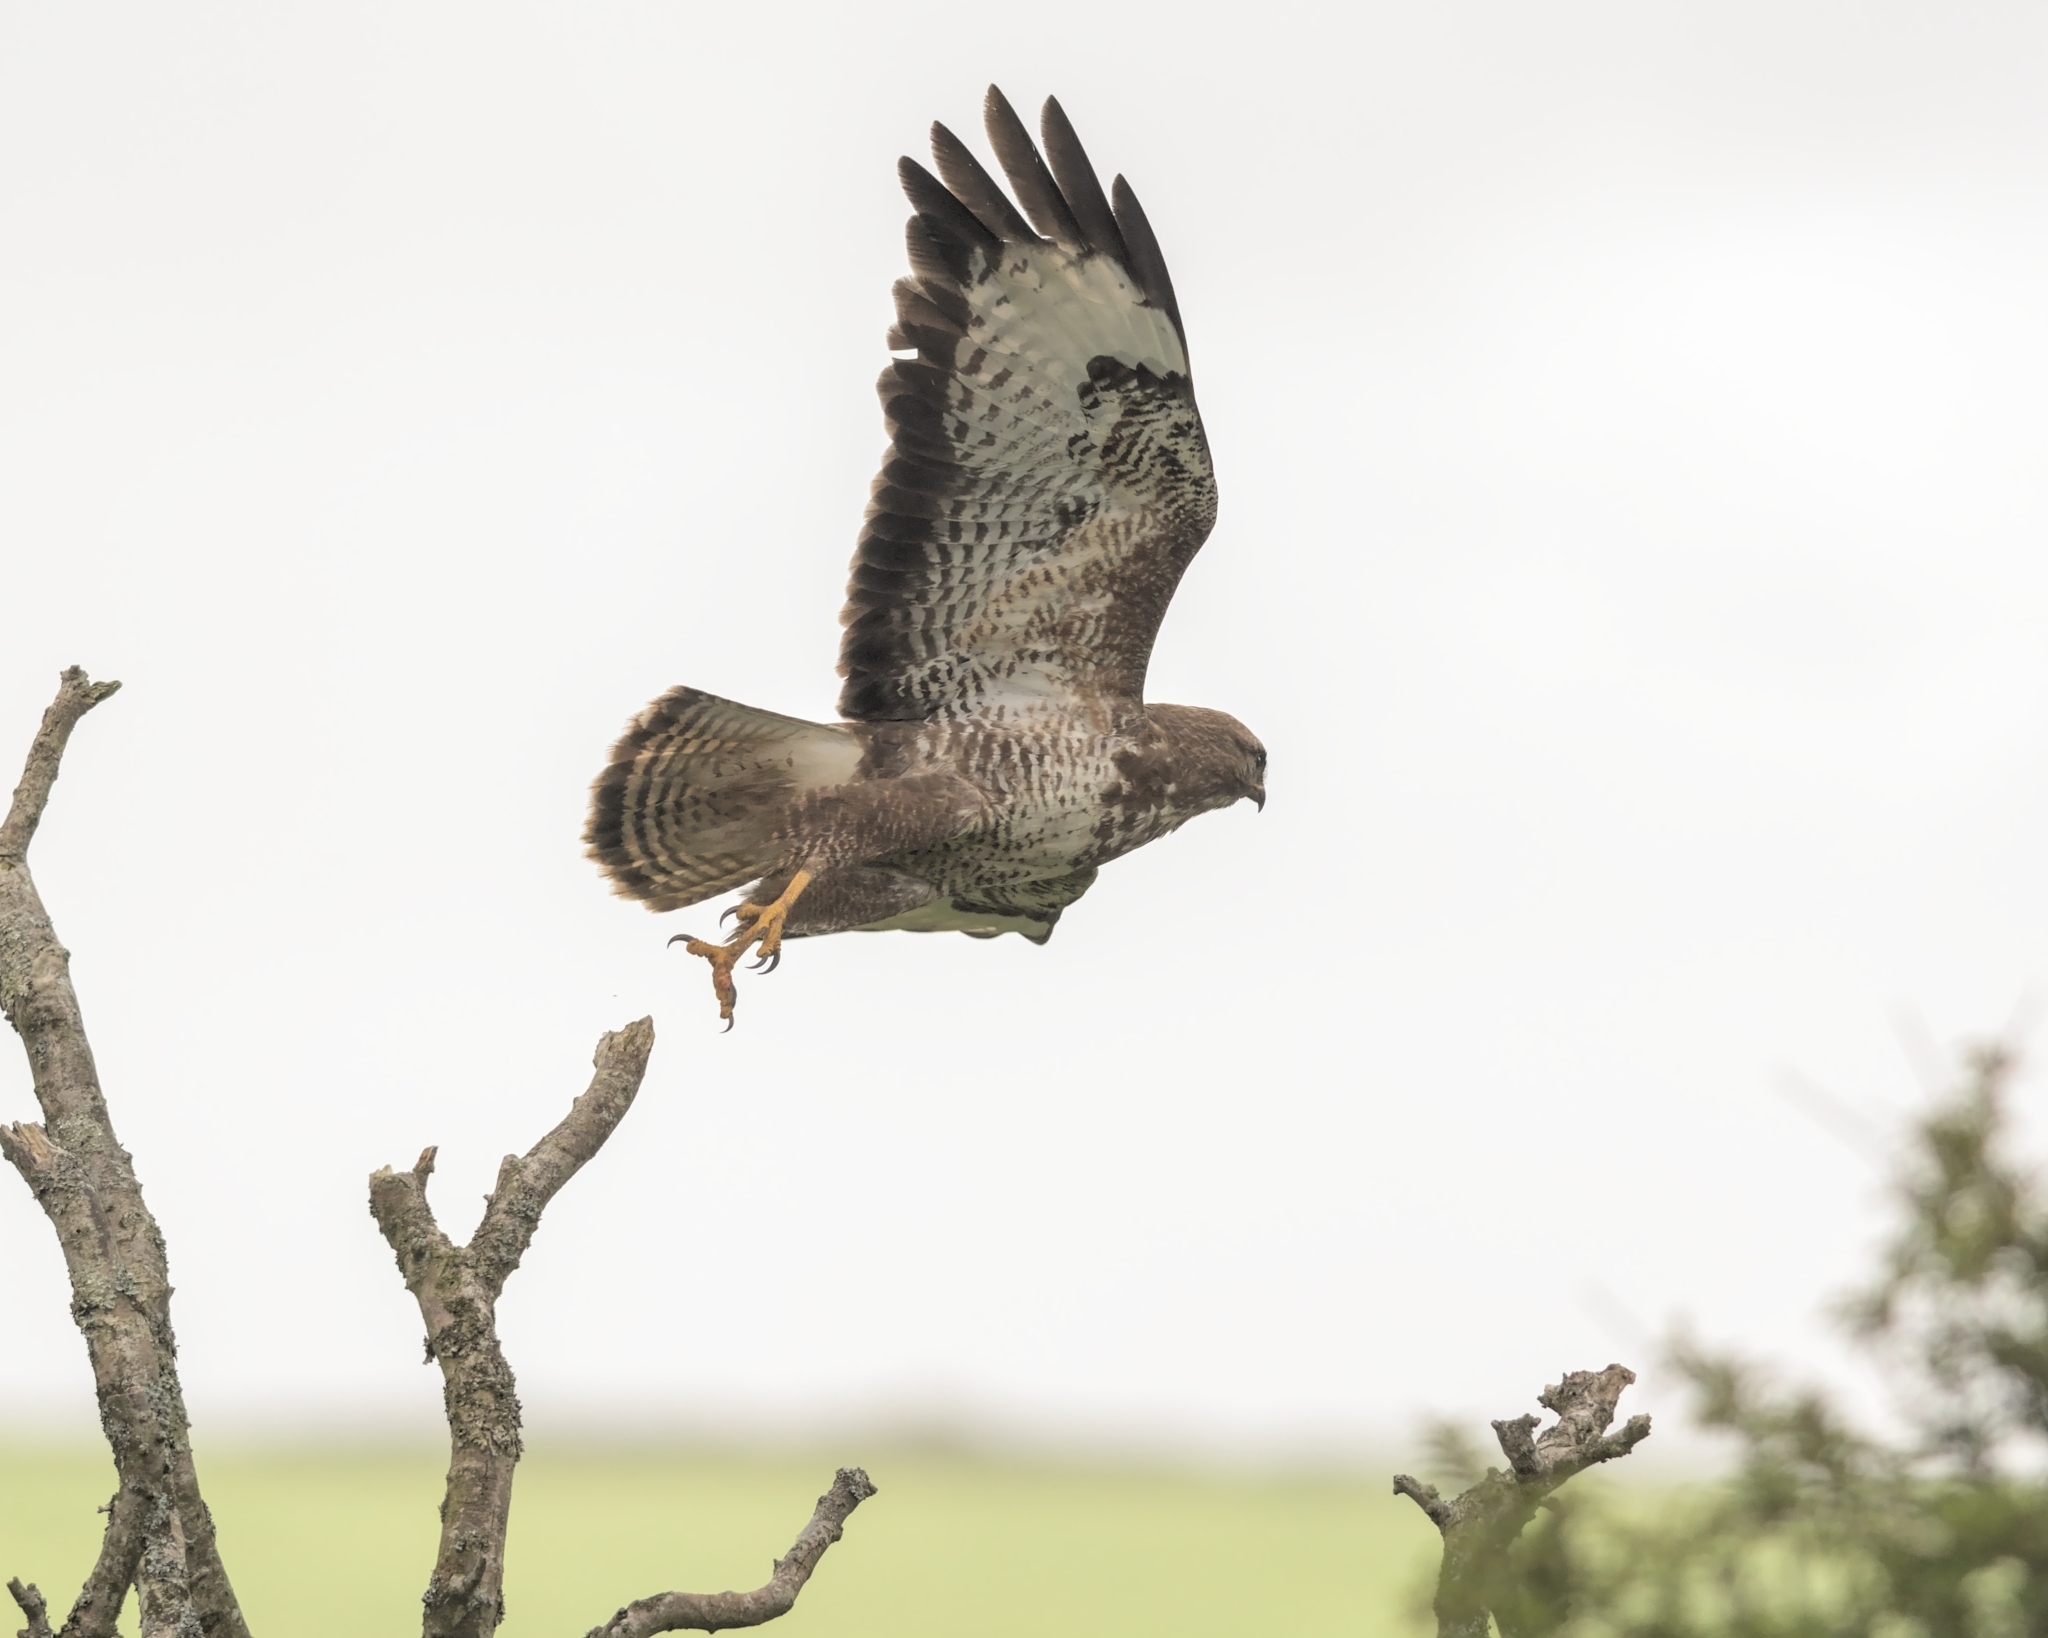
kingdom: Animalia
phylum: Chordata
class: Aves
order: Accipitriformes
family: Accipitridae
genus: Buteo
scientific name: Buteo buteo
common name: Common buzzard
